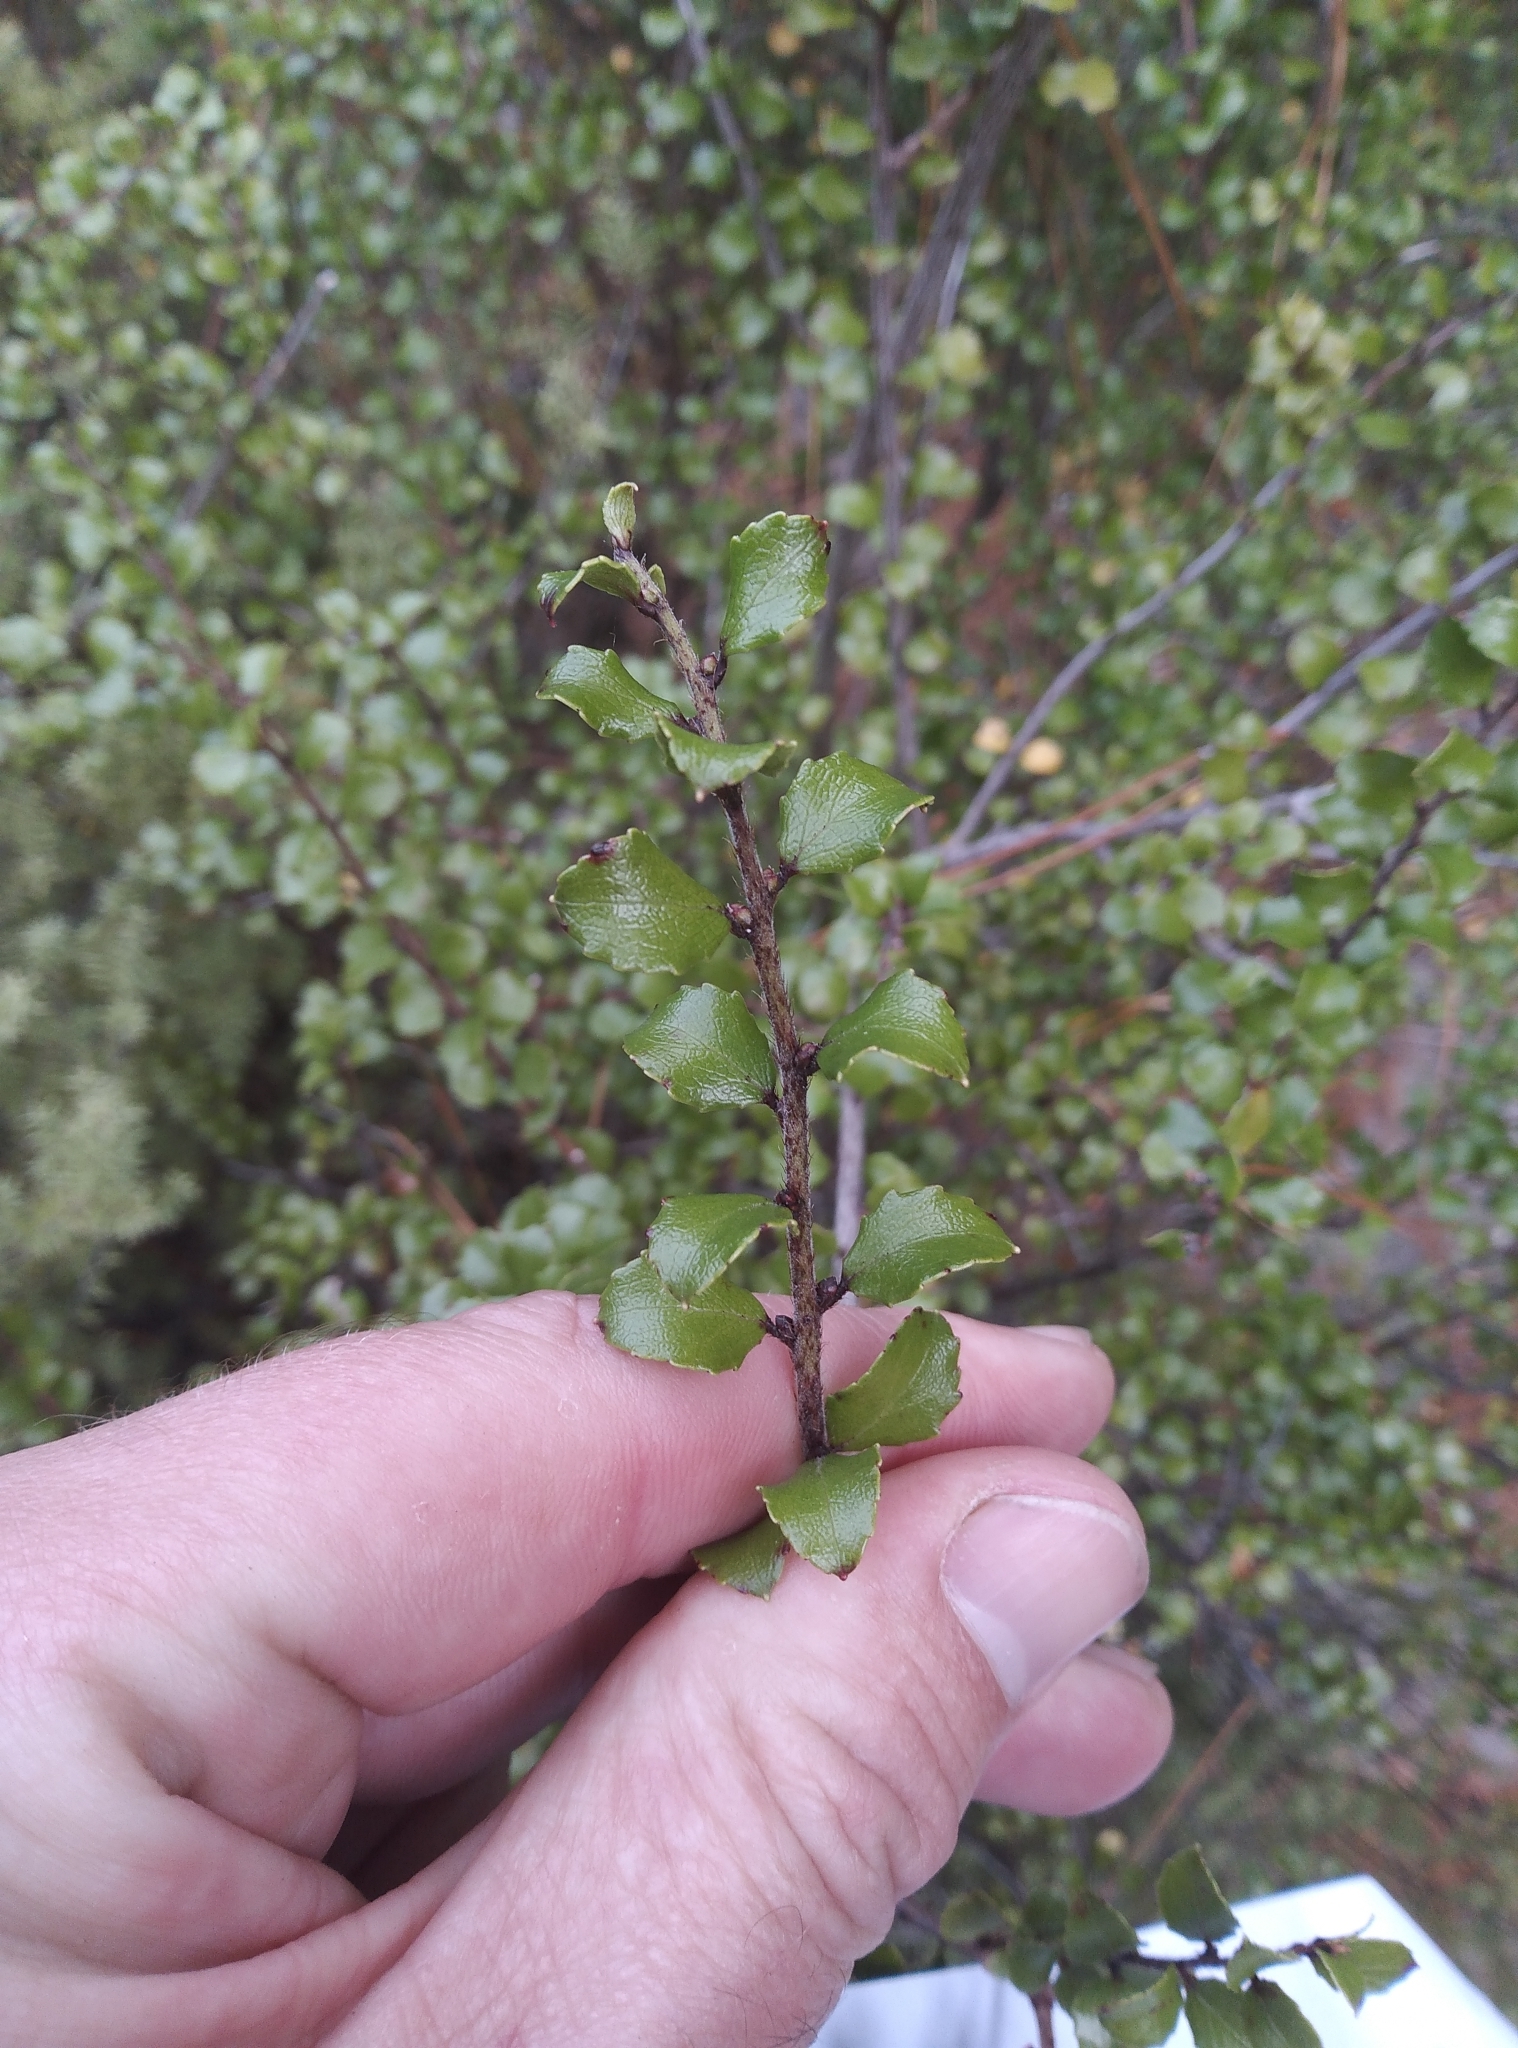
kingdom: Plantae
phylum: Tracheophyta
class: Magnoliopsida
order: Ericales
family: Ericaceae
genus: Gaultheria
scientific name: Gaultheria antipoda
